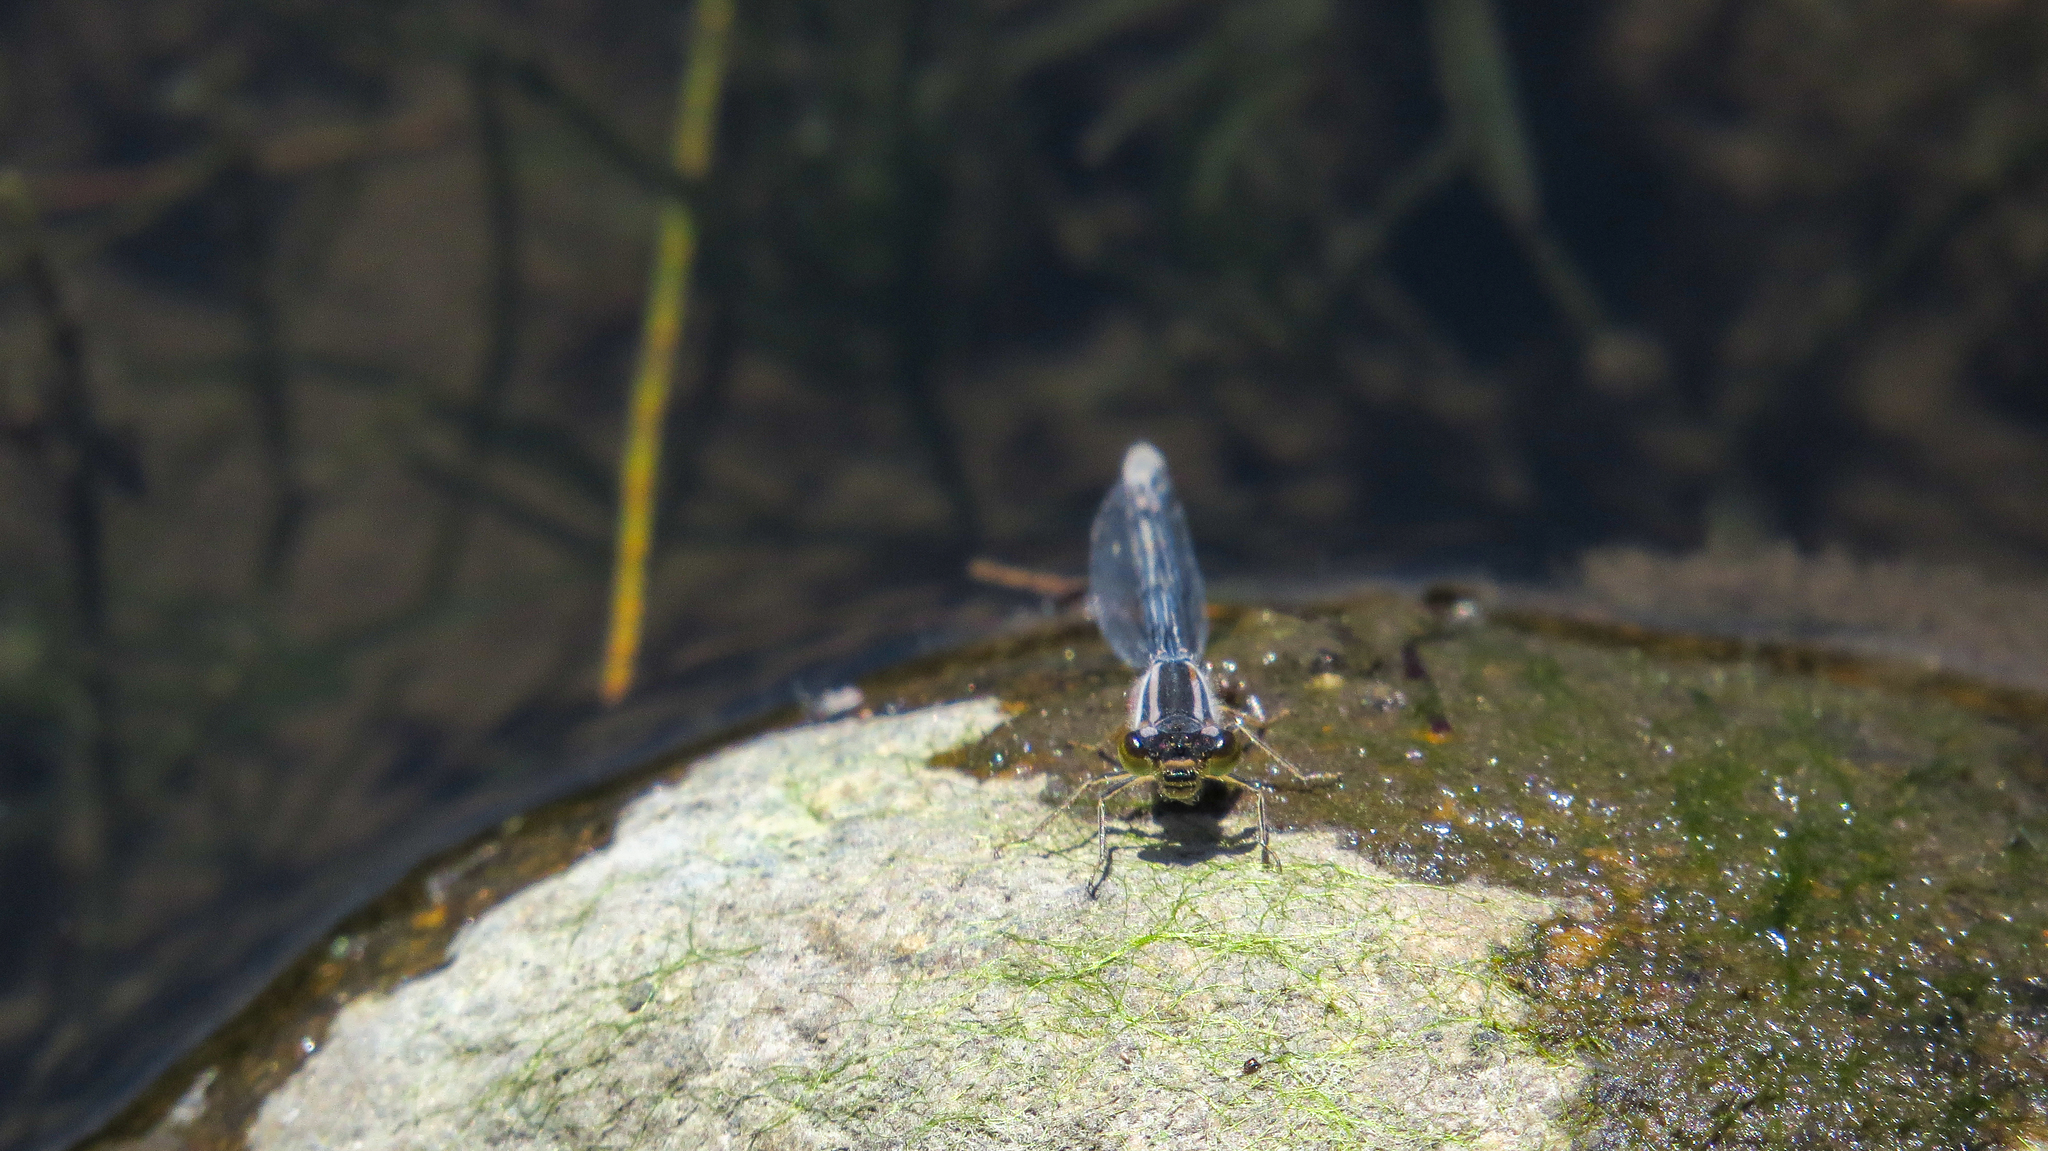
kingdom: Animalia
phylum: Arthropoda
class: Insecta
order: Odonata
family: Coenagrionidae
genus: Ischnura
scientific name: Ischnura heterosticta
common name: Common bluetail
